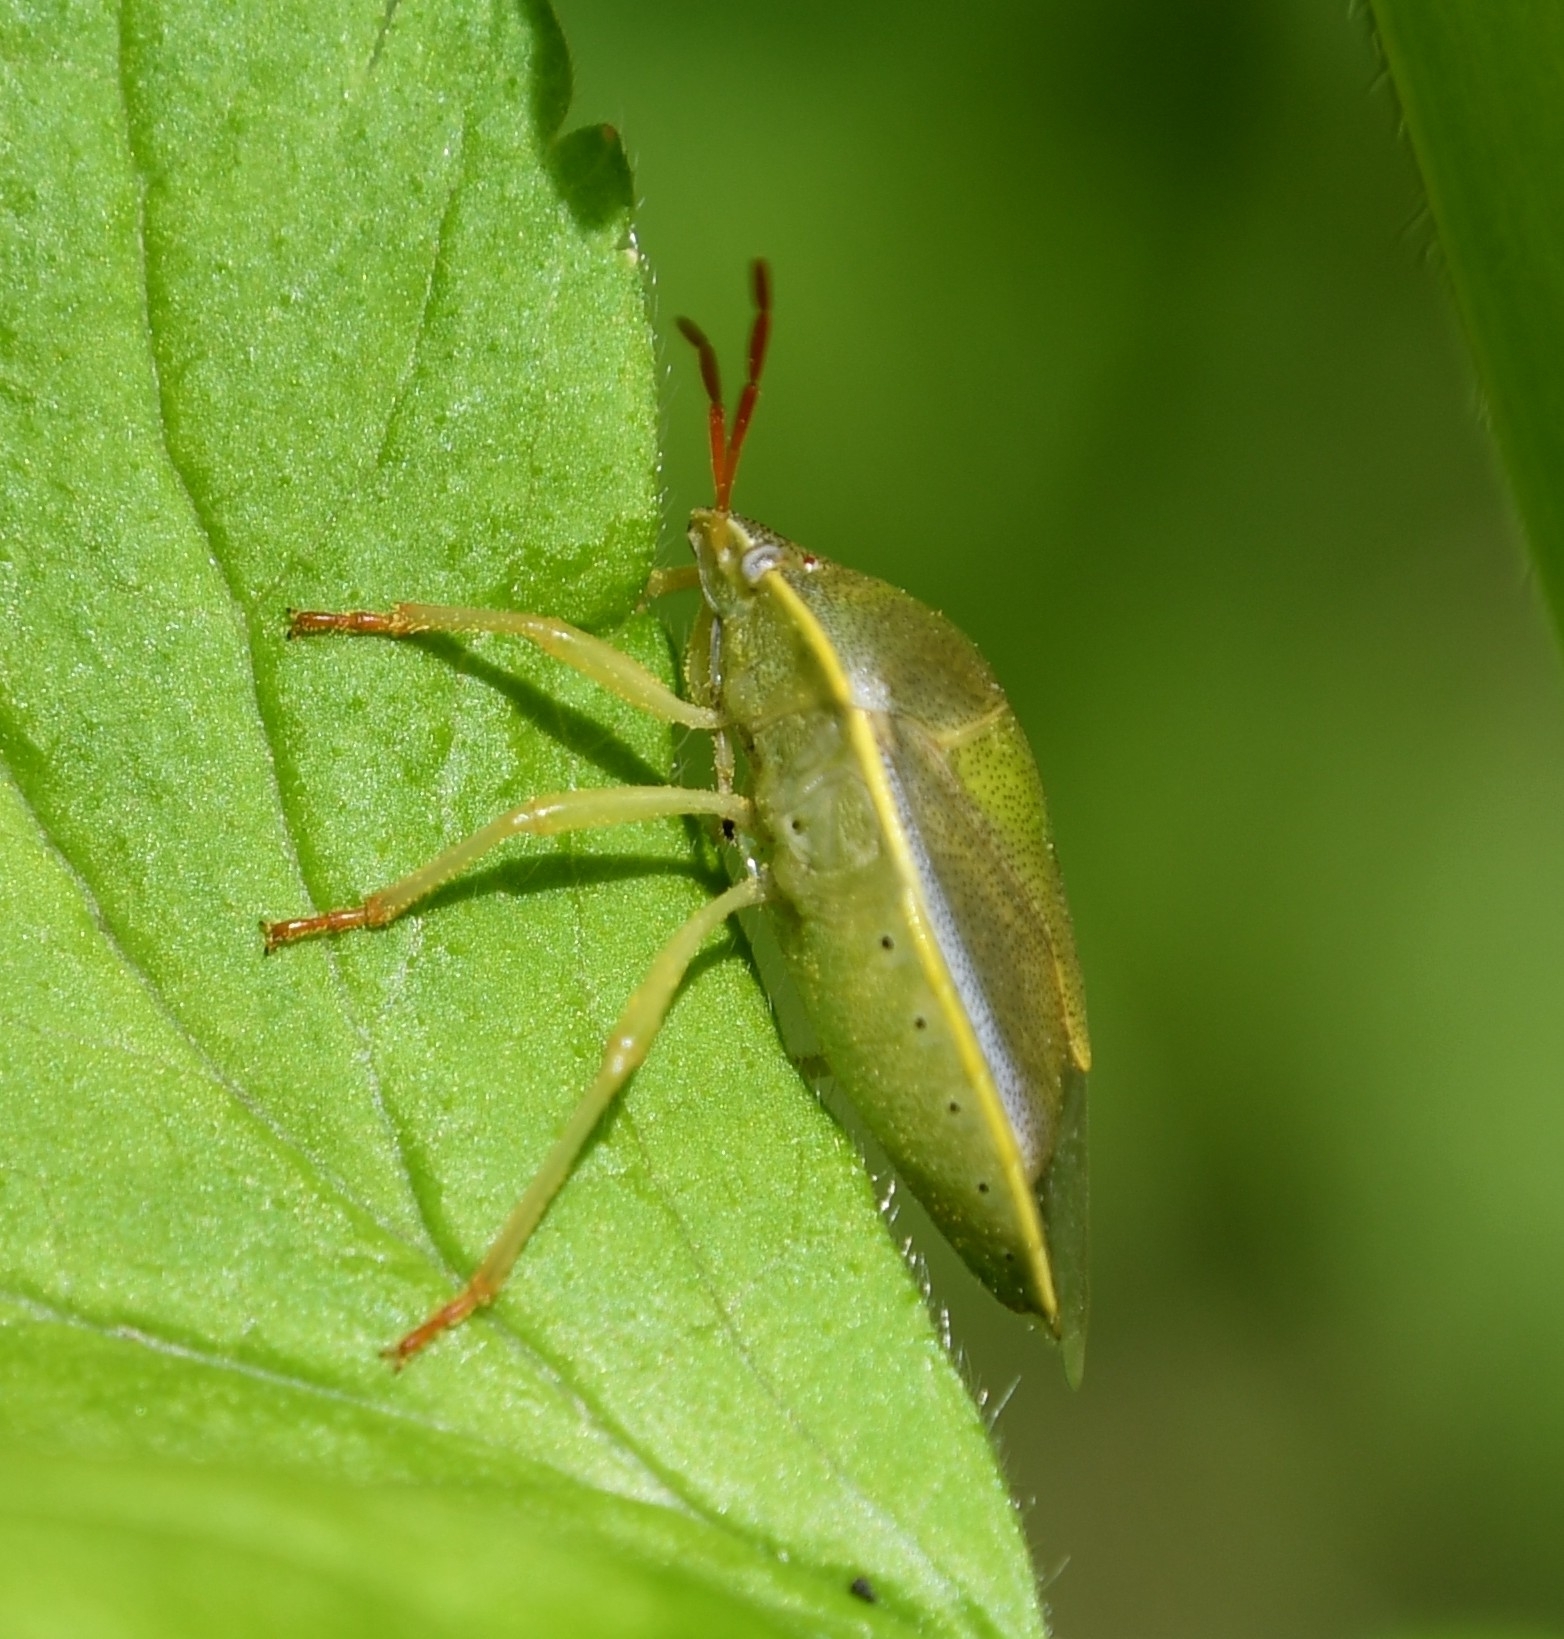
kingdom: Animalia
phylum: Arthropoda
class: Insecta
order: Hemiptera
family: Pentatomidae
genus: Piezodorus
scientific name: Piezodorus lituratus
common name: Stink bug
